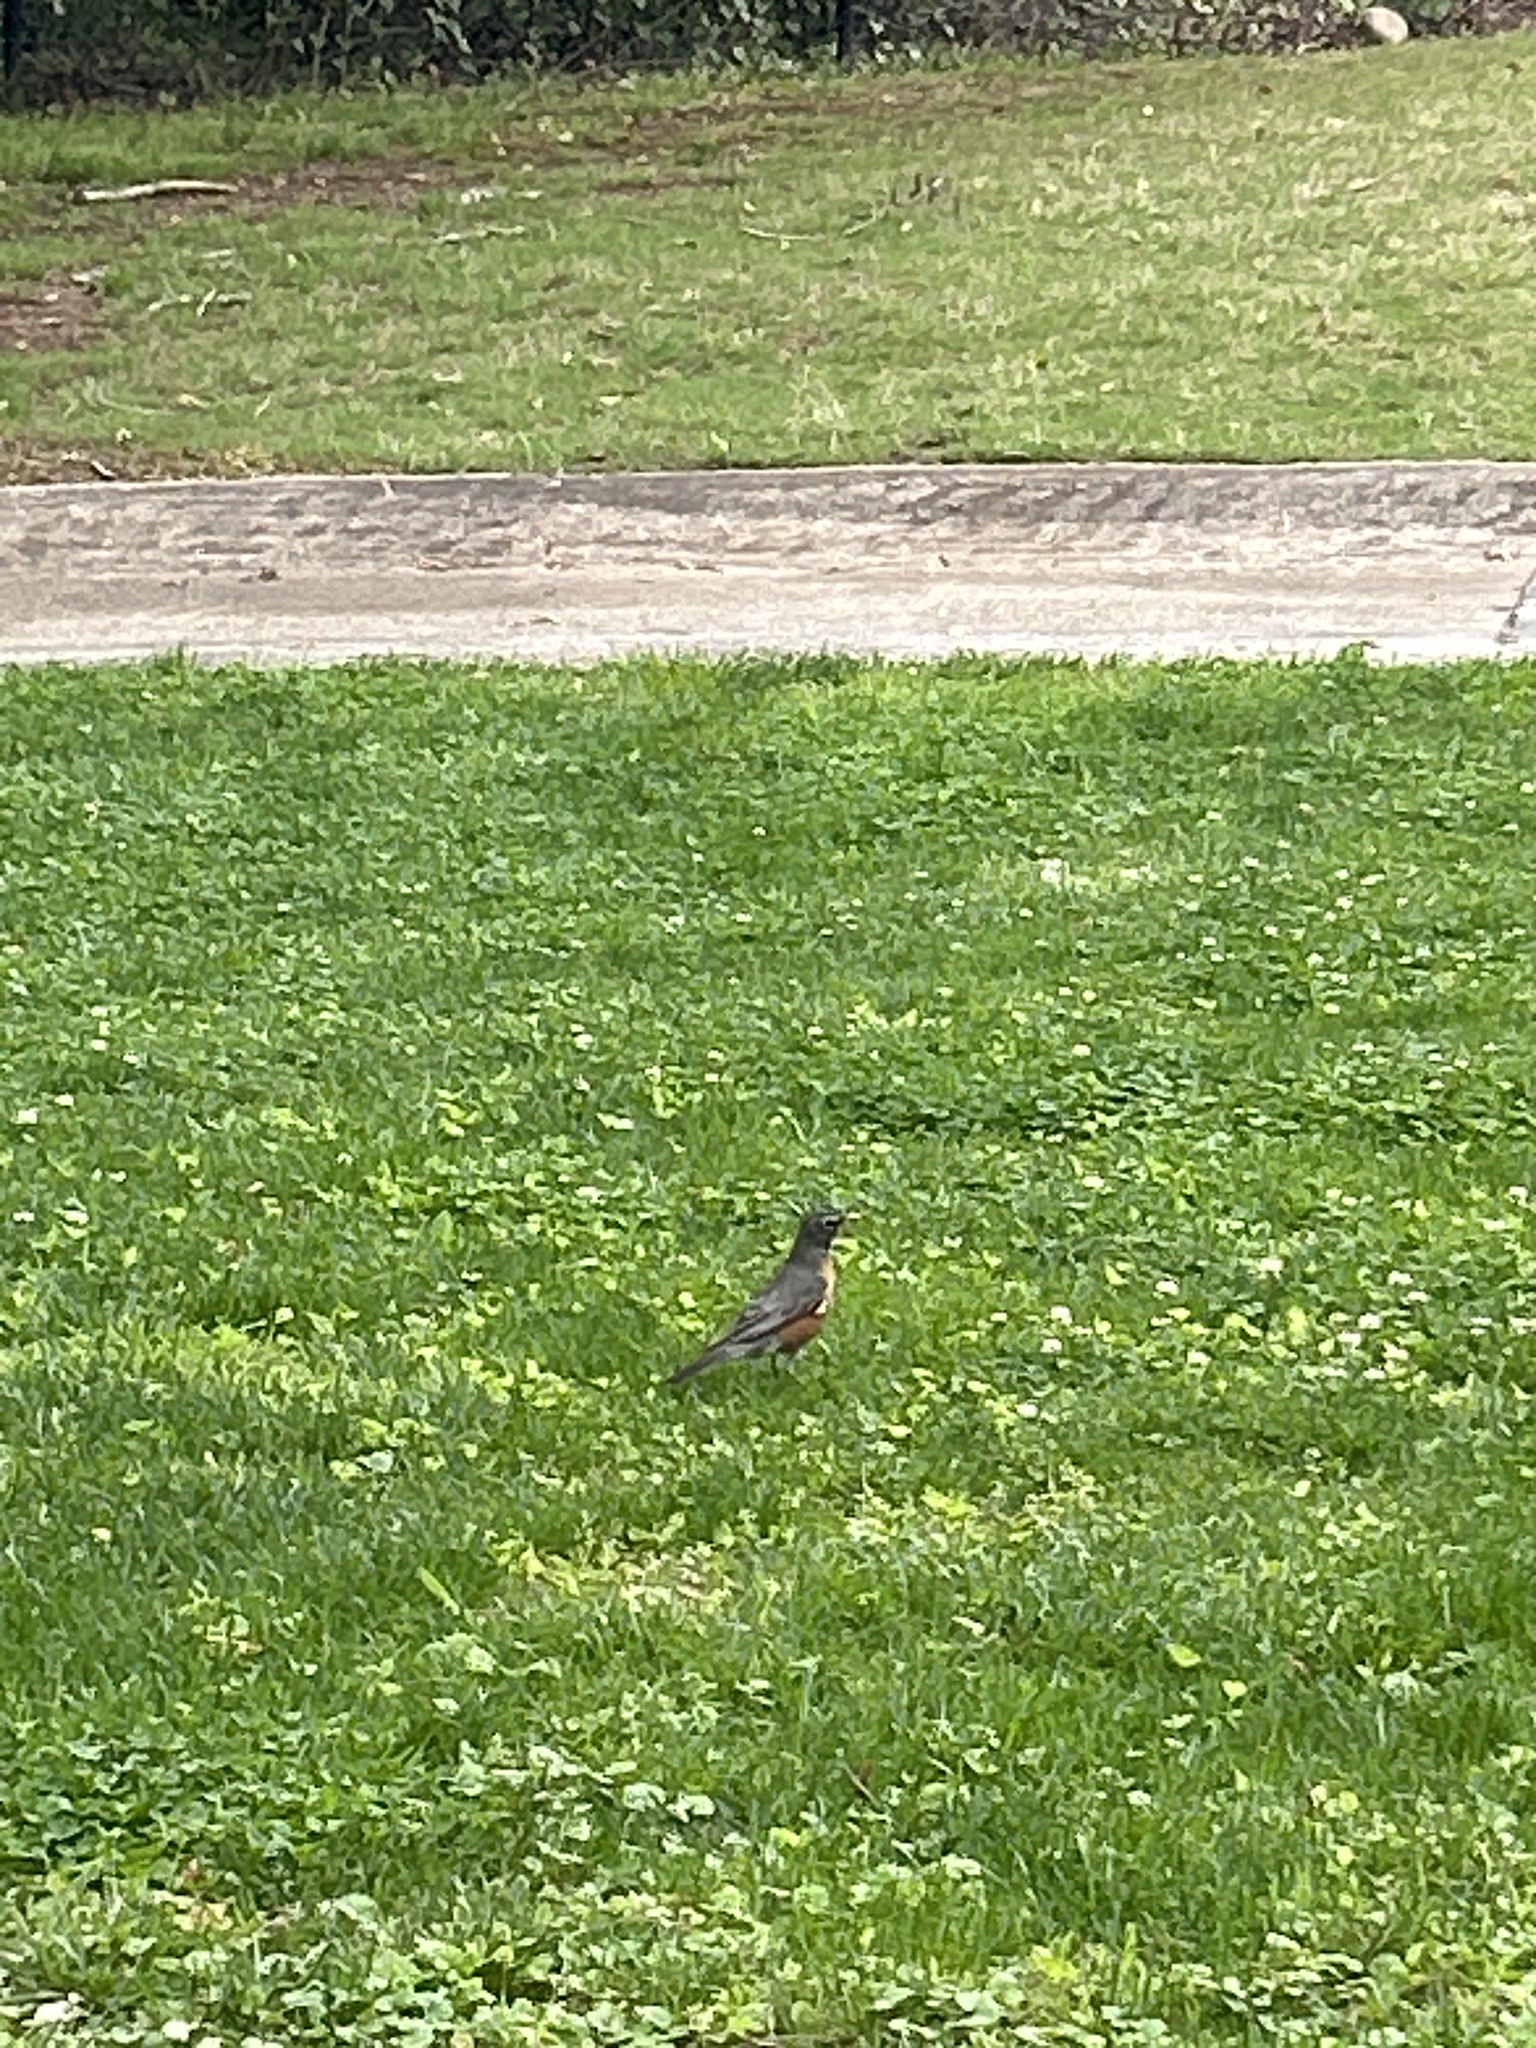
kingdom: Animalia
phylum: Chordata
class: Aves
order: Passeriformes
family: Turdidae
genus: Turdus
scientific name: Turdus migratorius
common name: American robin
